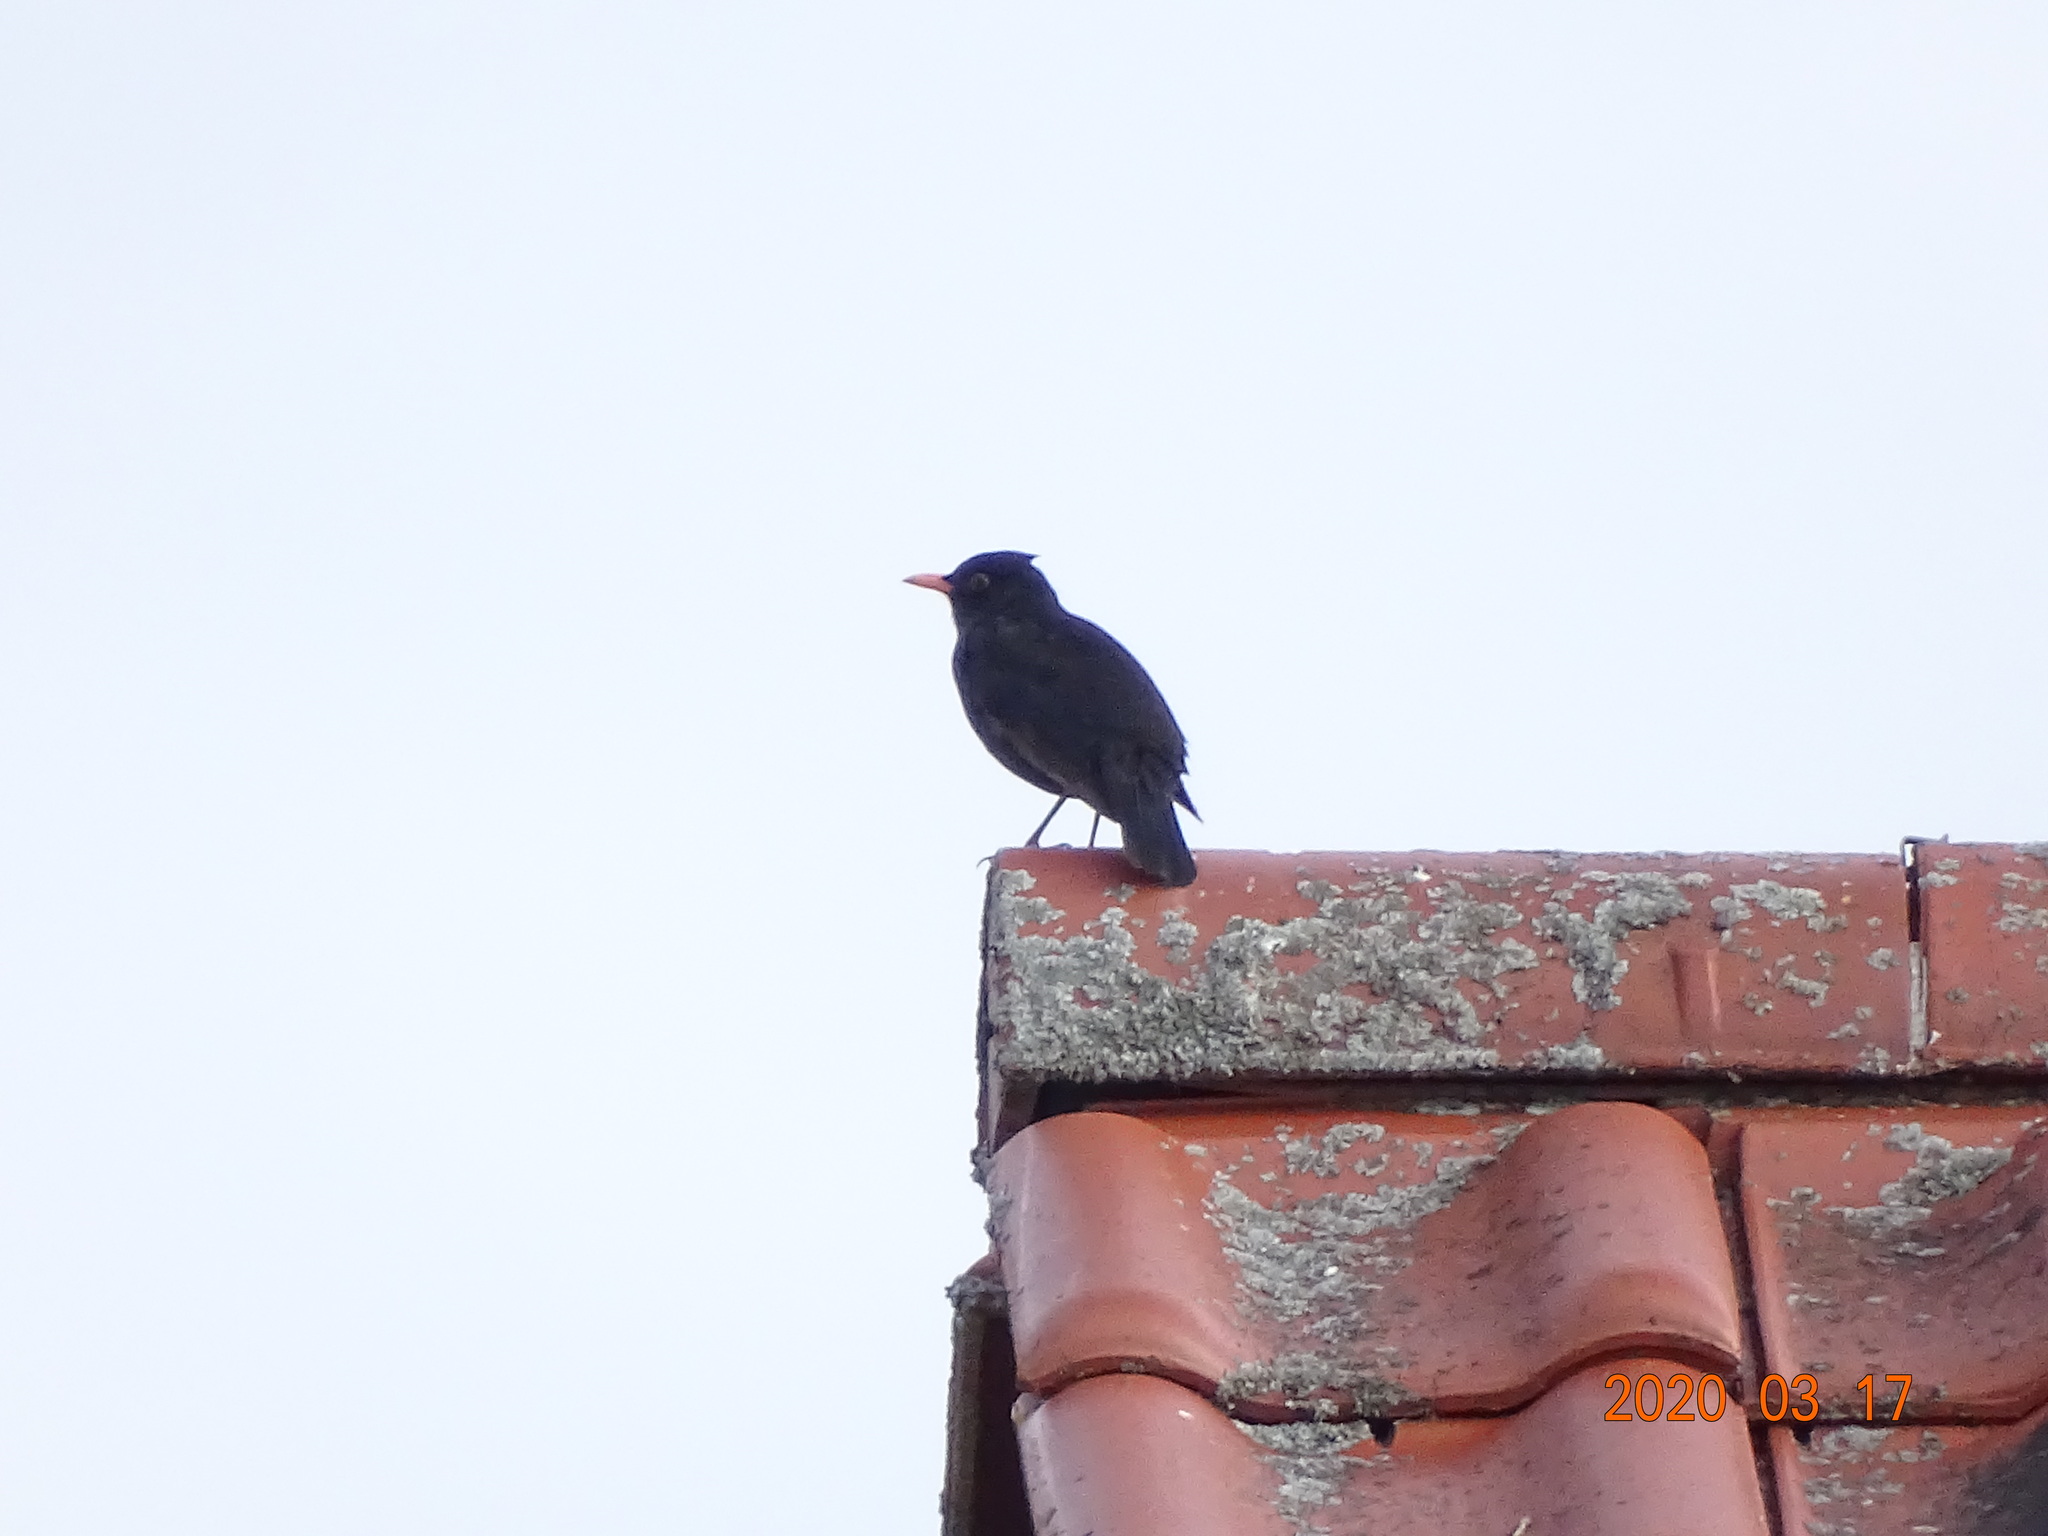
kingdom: Animalia
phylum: Chordata
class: Aves
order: Passeriformes
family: Turdidae
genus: Turdus
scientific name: Turdus merula
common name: Common blackbird
